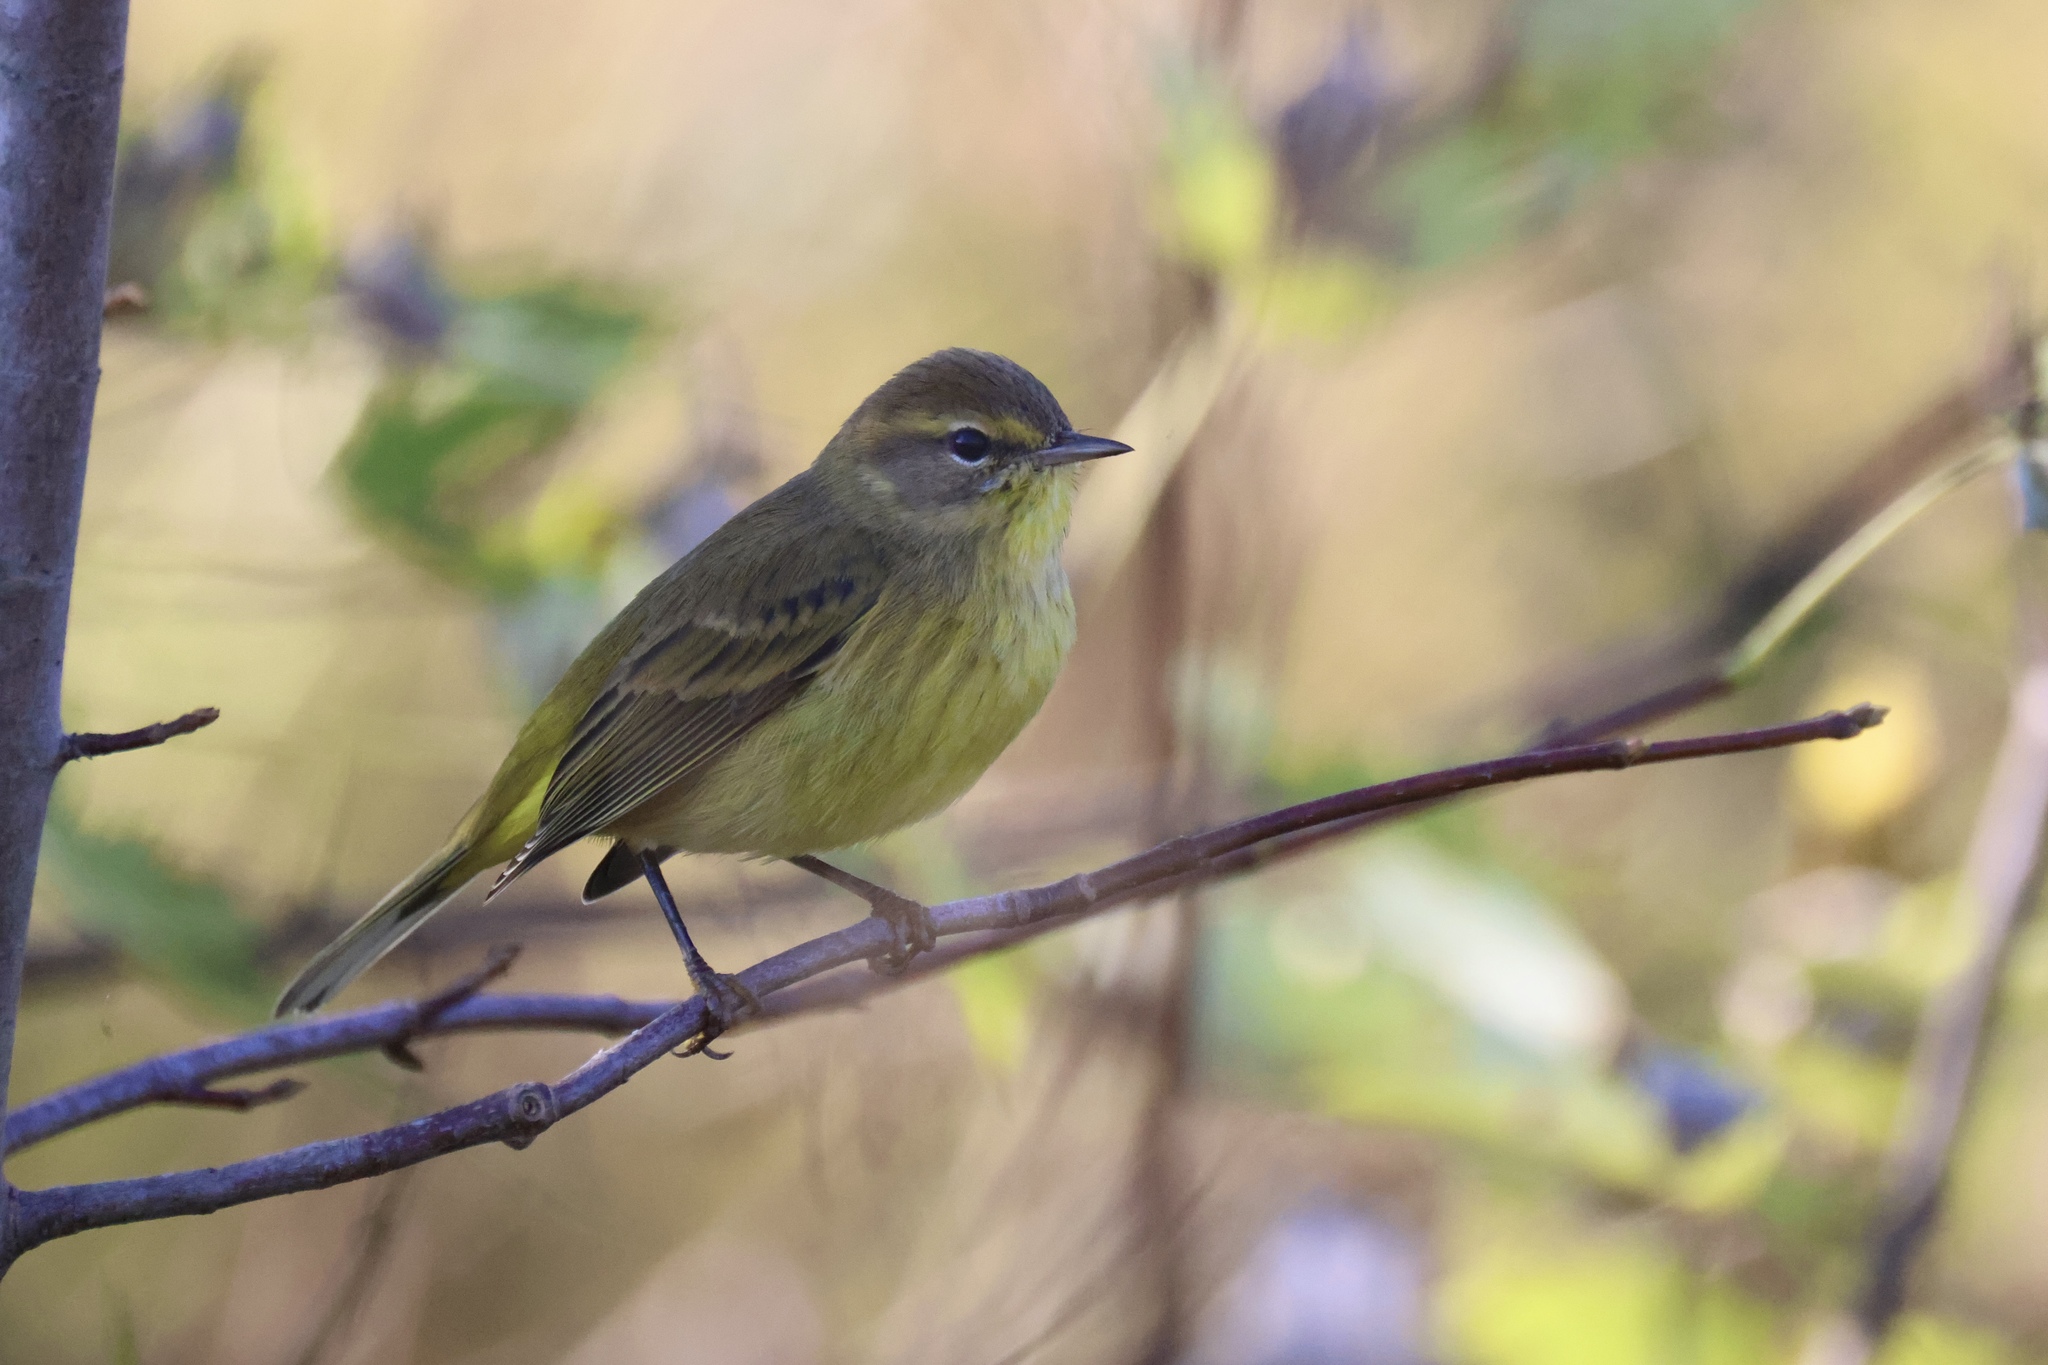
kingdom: Animalia
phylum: Chordata
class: Aves
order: Passeriformes
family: Parulidae
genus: Setophaga
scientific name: Setophaga palmarum
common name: Palm warbler
